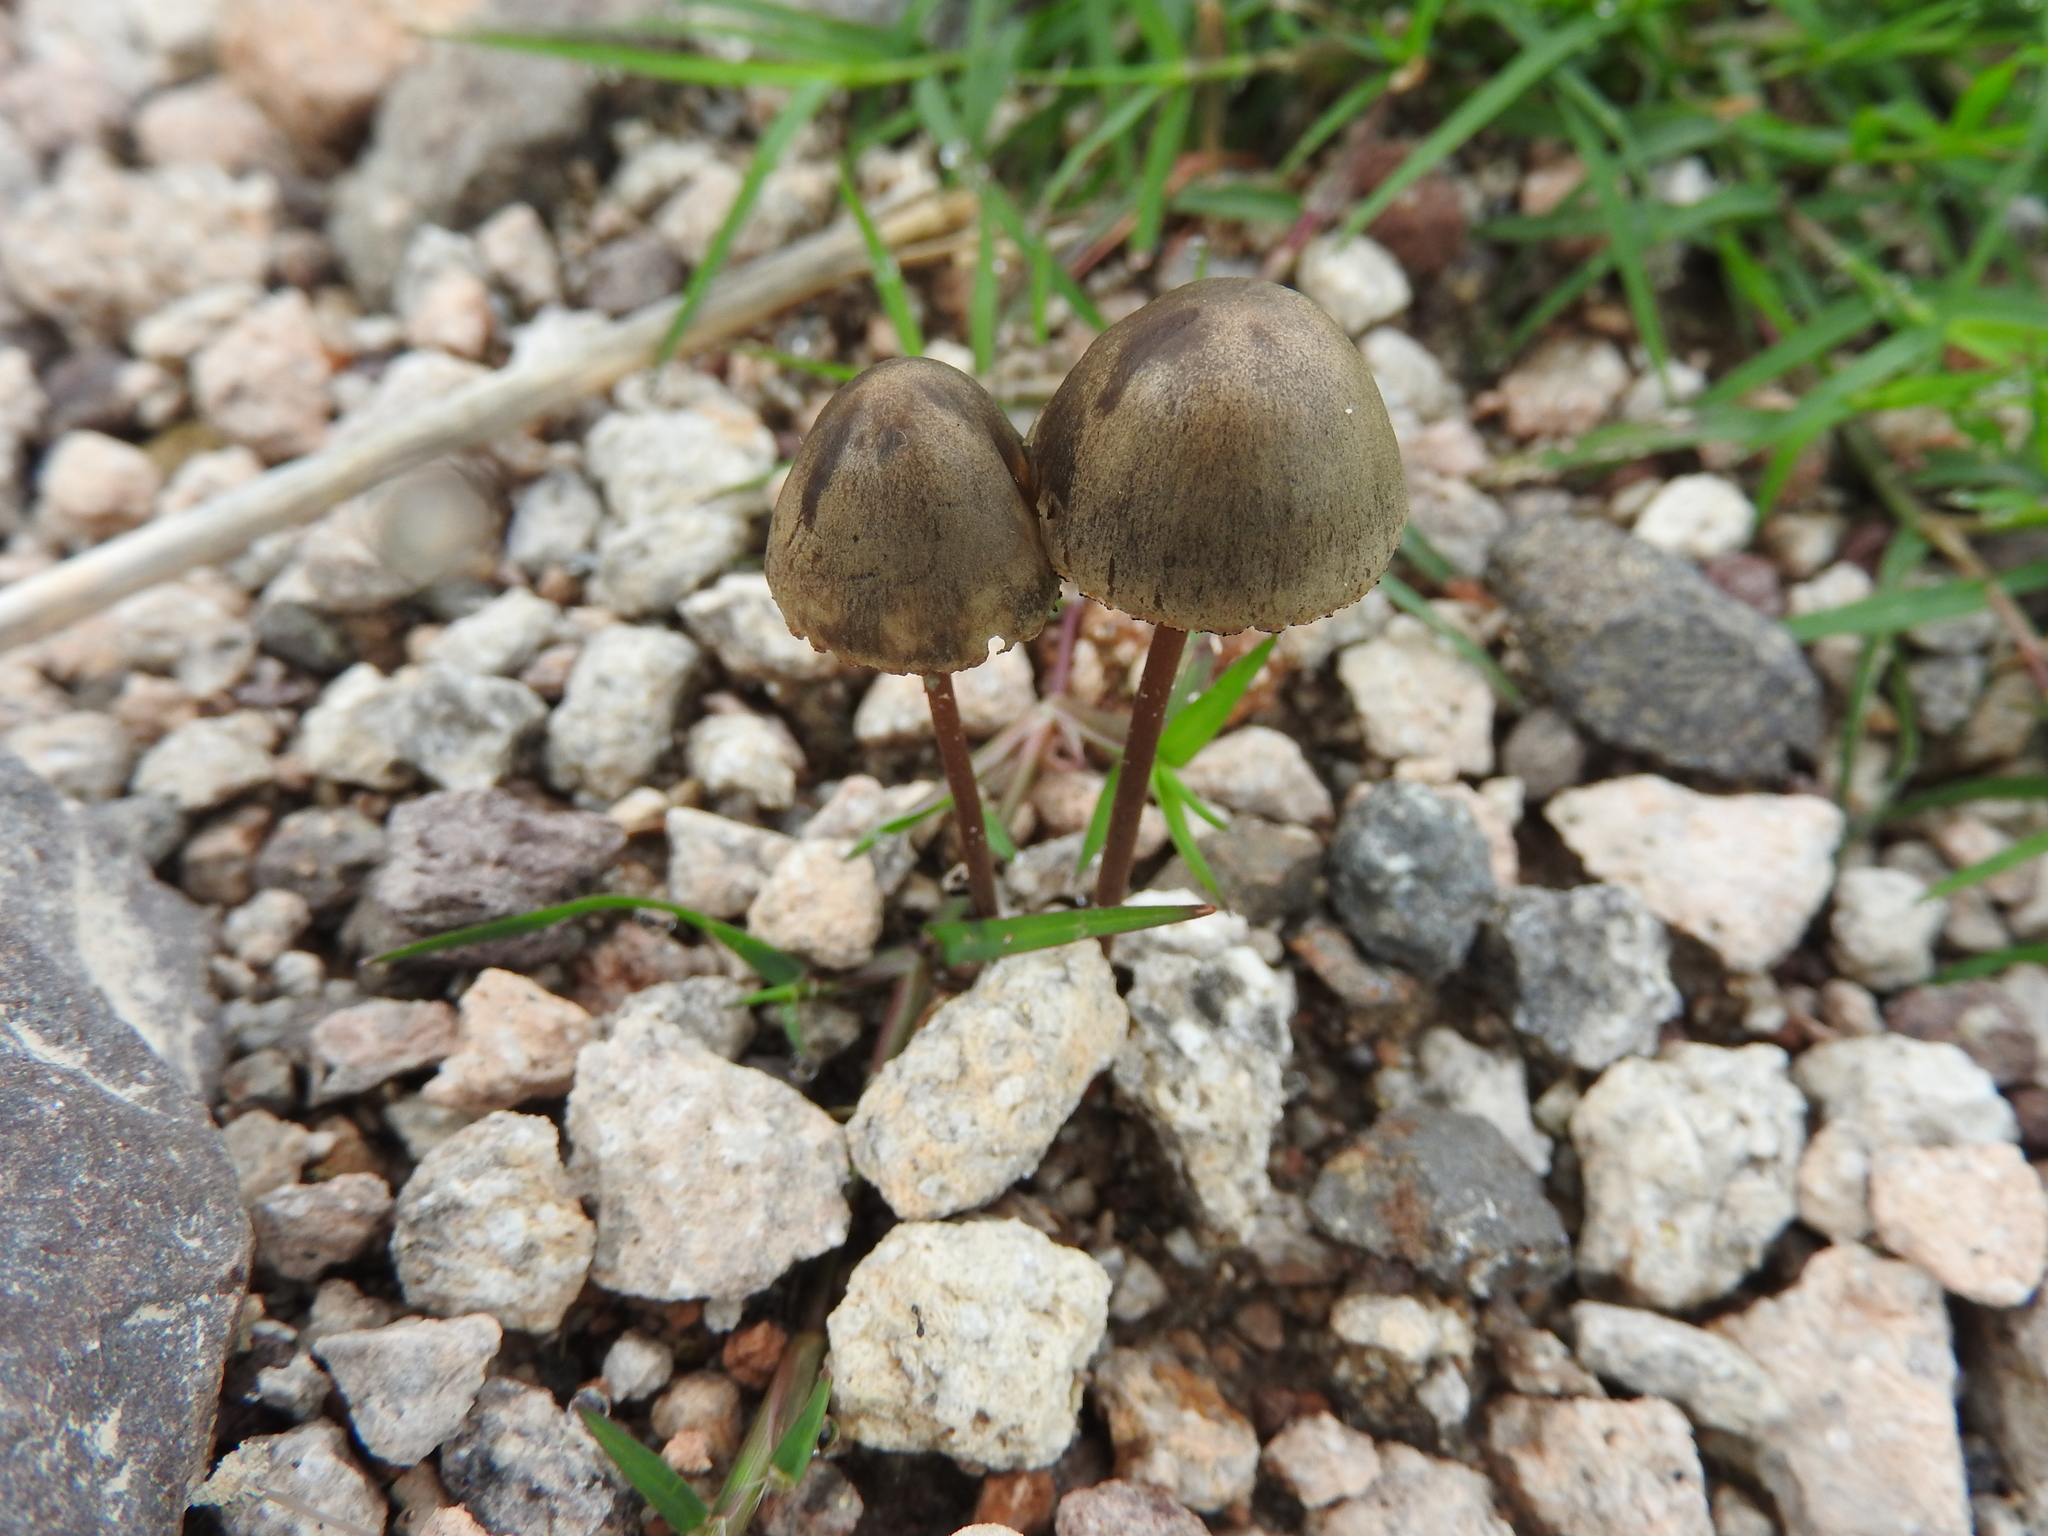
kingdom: Fungi
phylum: Basidiomycota
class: Agaricomycetes
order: Agaricales
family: Bolbitiaceae
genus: Panaeolus
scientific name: Panaeolus papilionaceus
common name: Petticoat mottlegill
